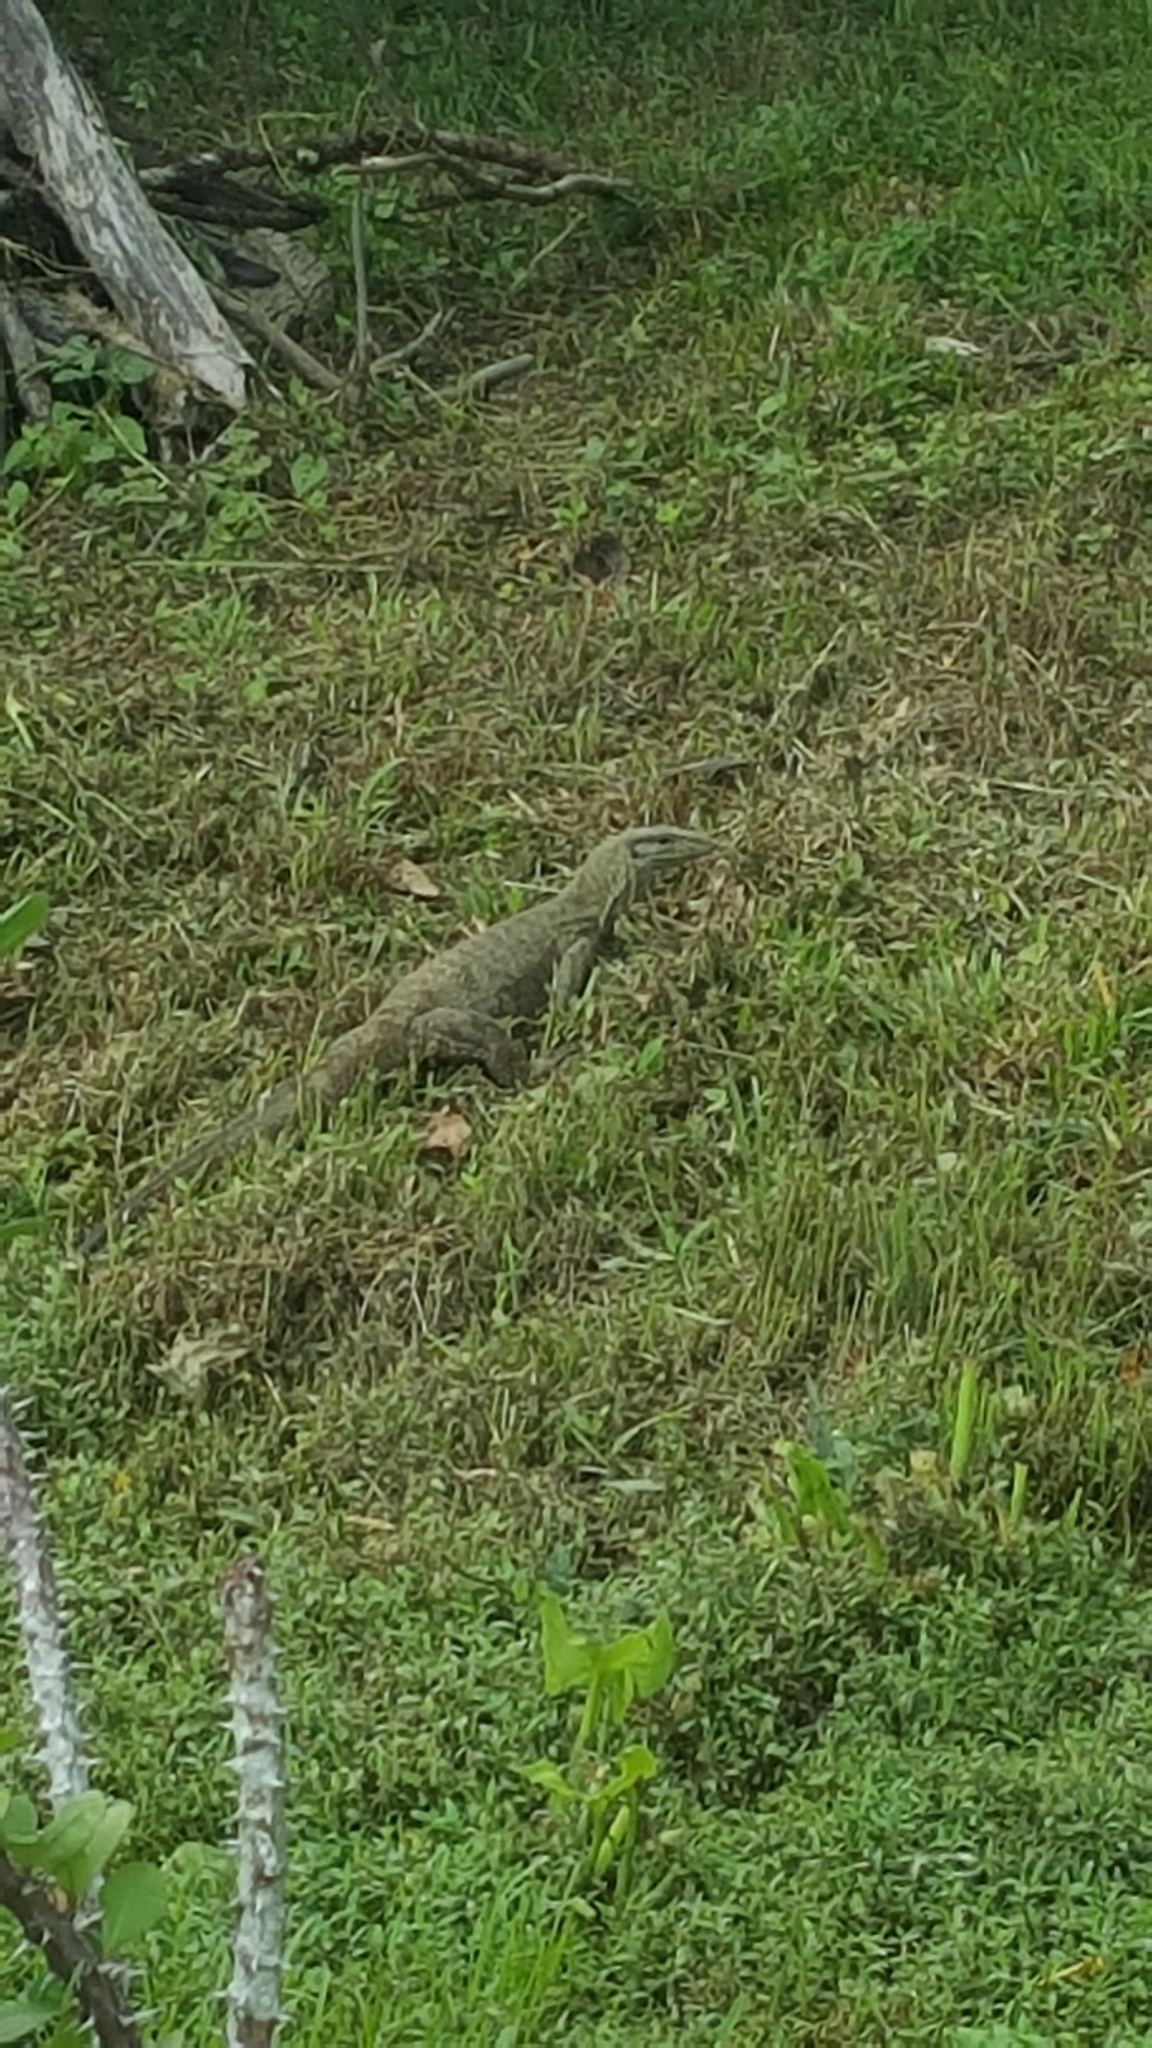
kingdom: Animalia
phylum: Chordata
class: Squamata
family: Varanidae
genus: Varanus
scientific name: Varanus nebulosus
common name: Clouded monitor
